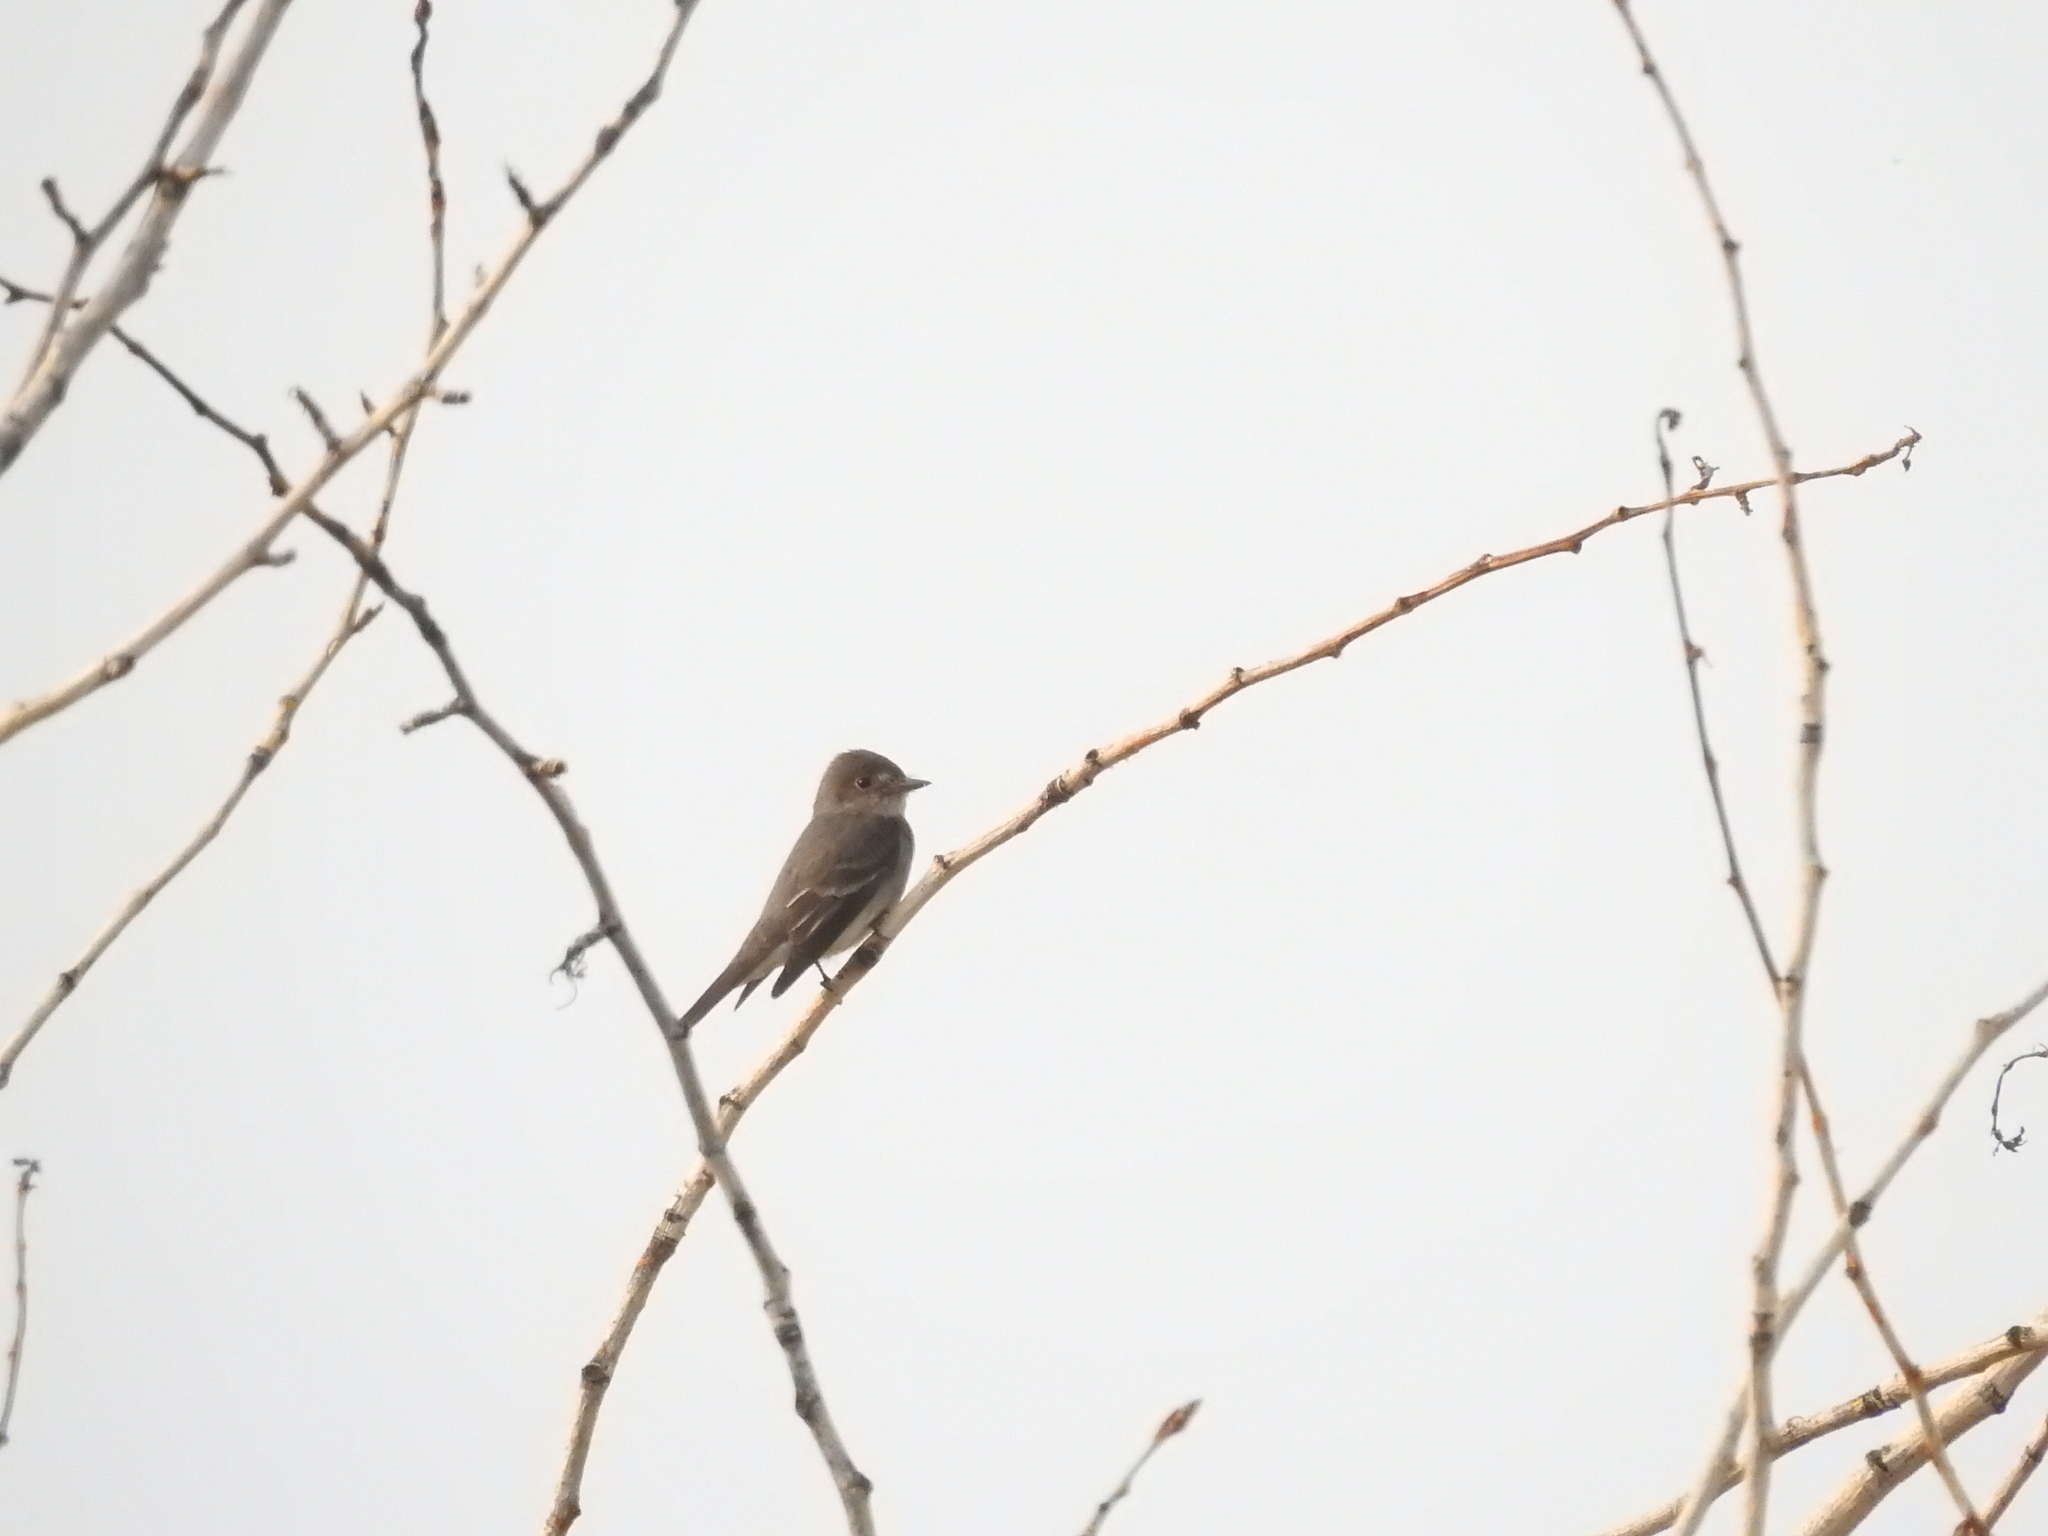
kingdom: Animalia
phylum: Chordata
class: Aves
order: Passeriformes
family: Tyrannidae
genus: Contopus
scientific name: Contopus sordidulus
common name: Western wood-pewee
